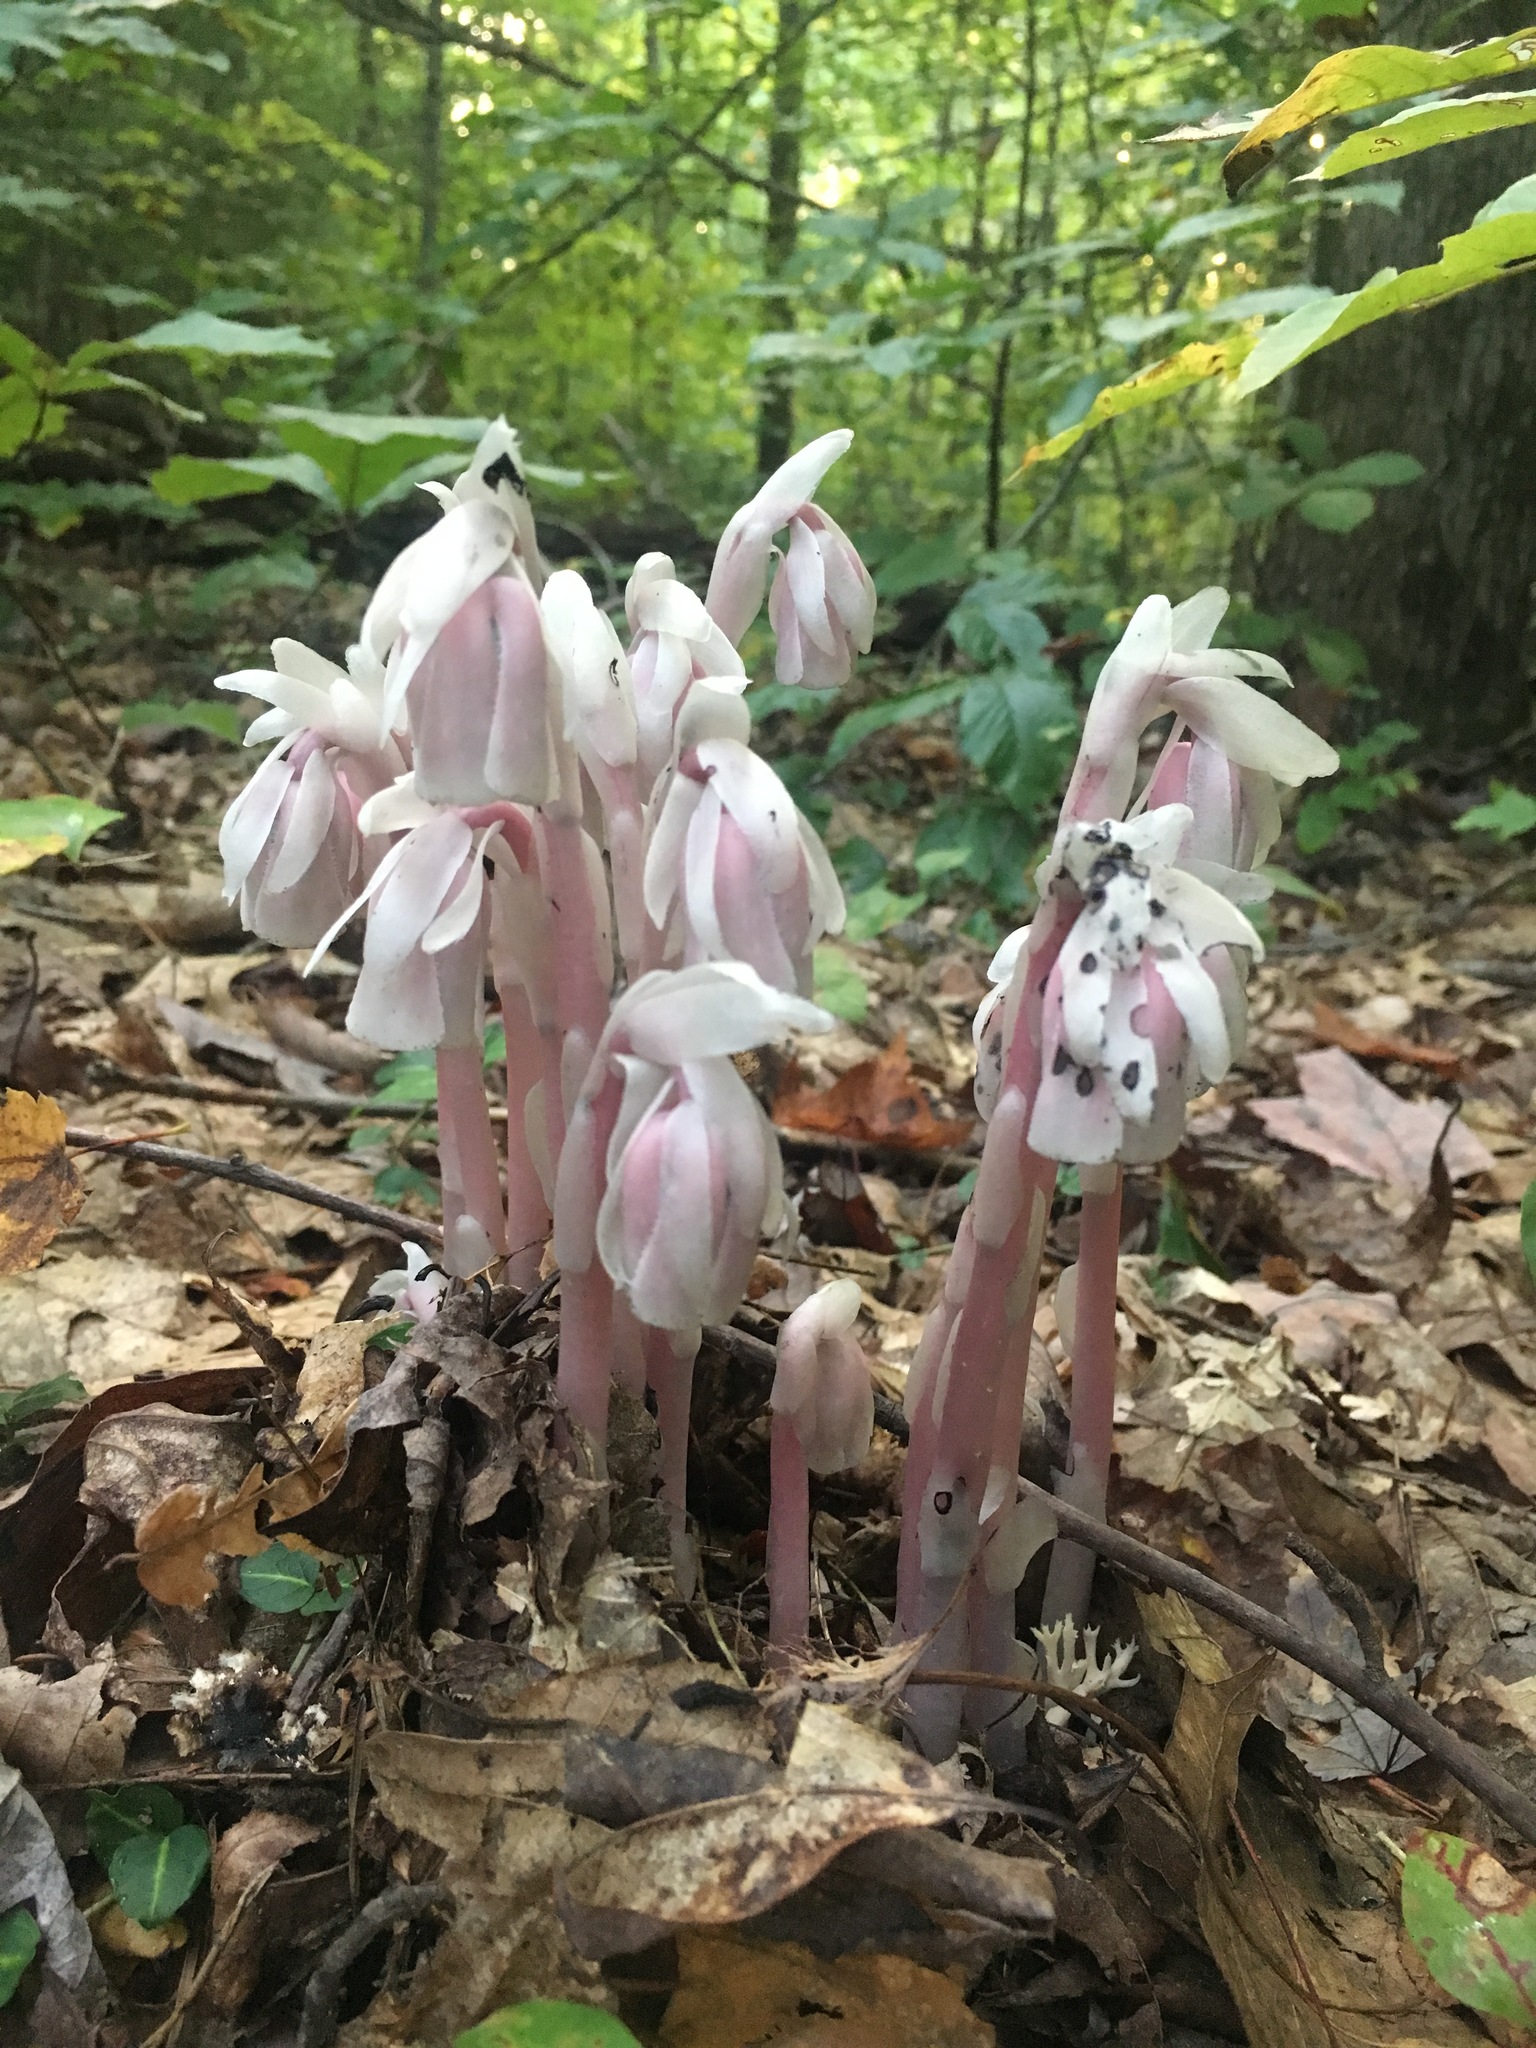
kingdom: Plantae
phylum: Tracheophyta
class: Magnoliopsida
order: Ericales
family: Ericaceae
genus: Monotropa
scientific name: Monotropa uniflora
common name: Convulsion root
